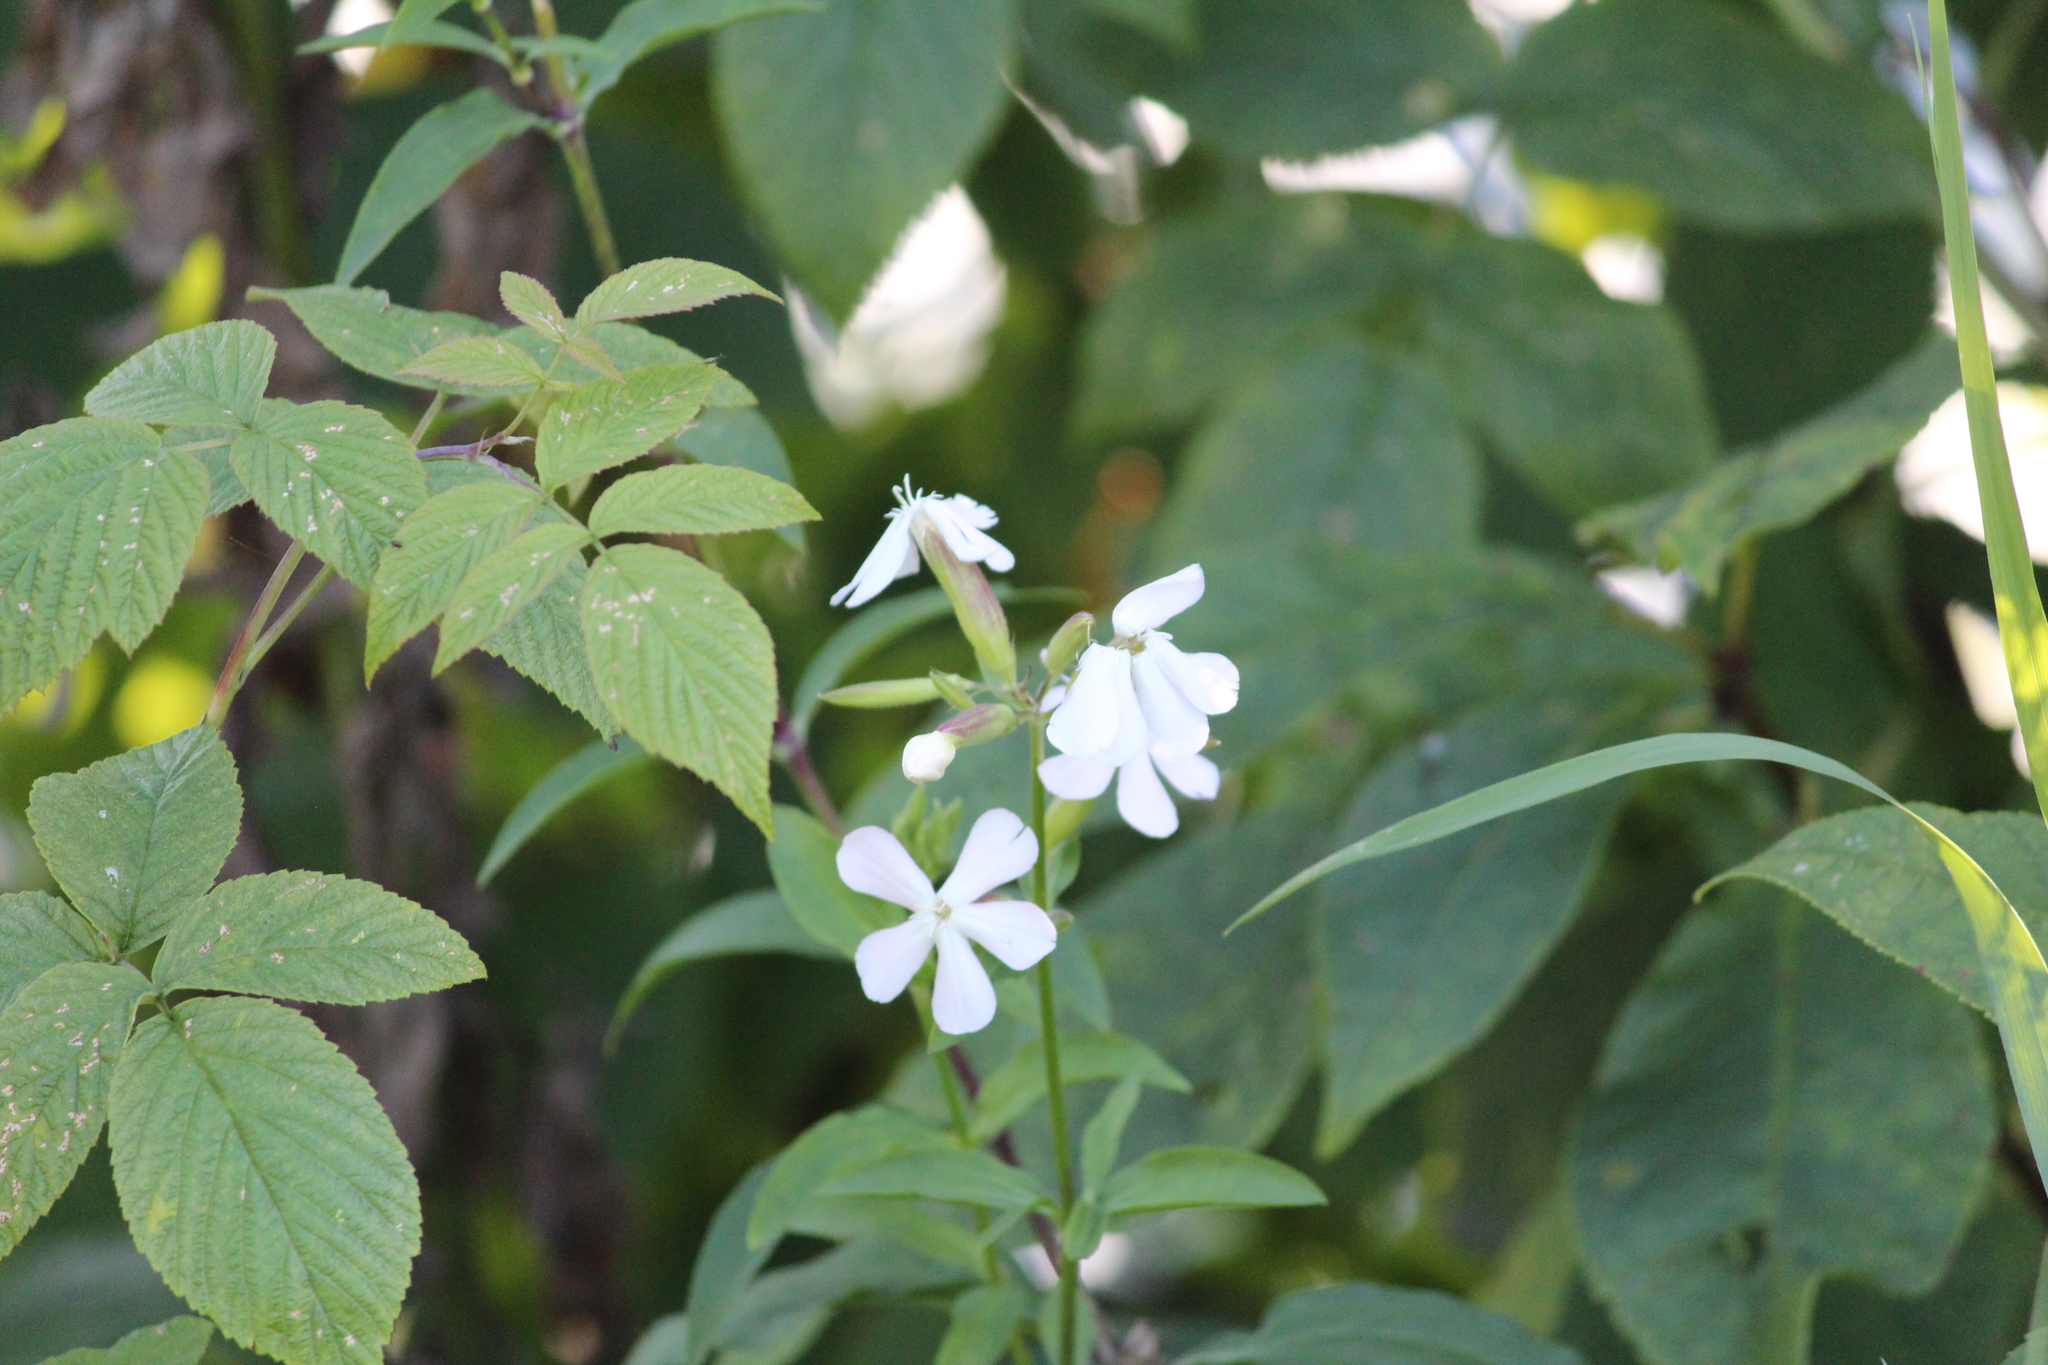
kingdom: Plantae
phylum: Tracheophyta
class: Magnoliopsida
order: Caryophyllales
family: Caryophyllaceae
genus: Saponaria
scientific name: Saponaria officinalis
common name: Soapwort
